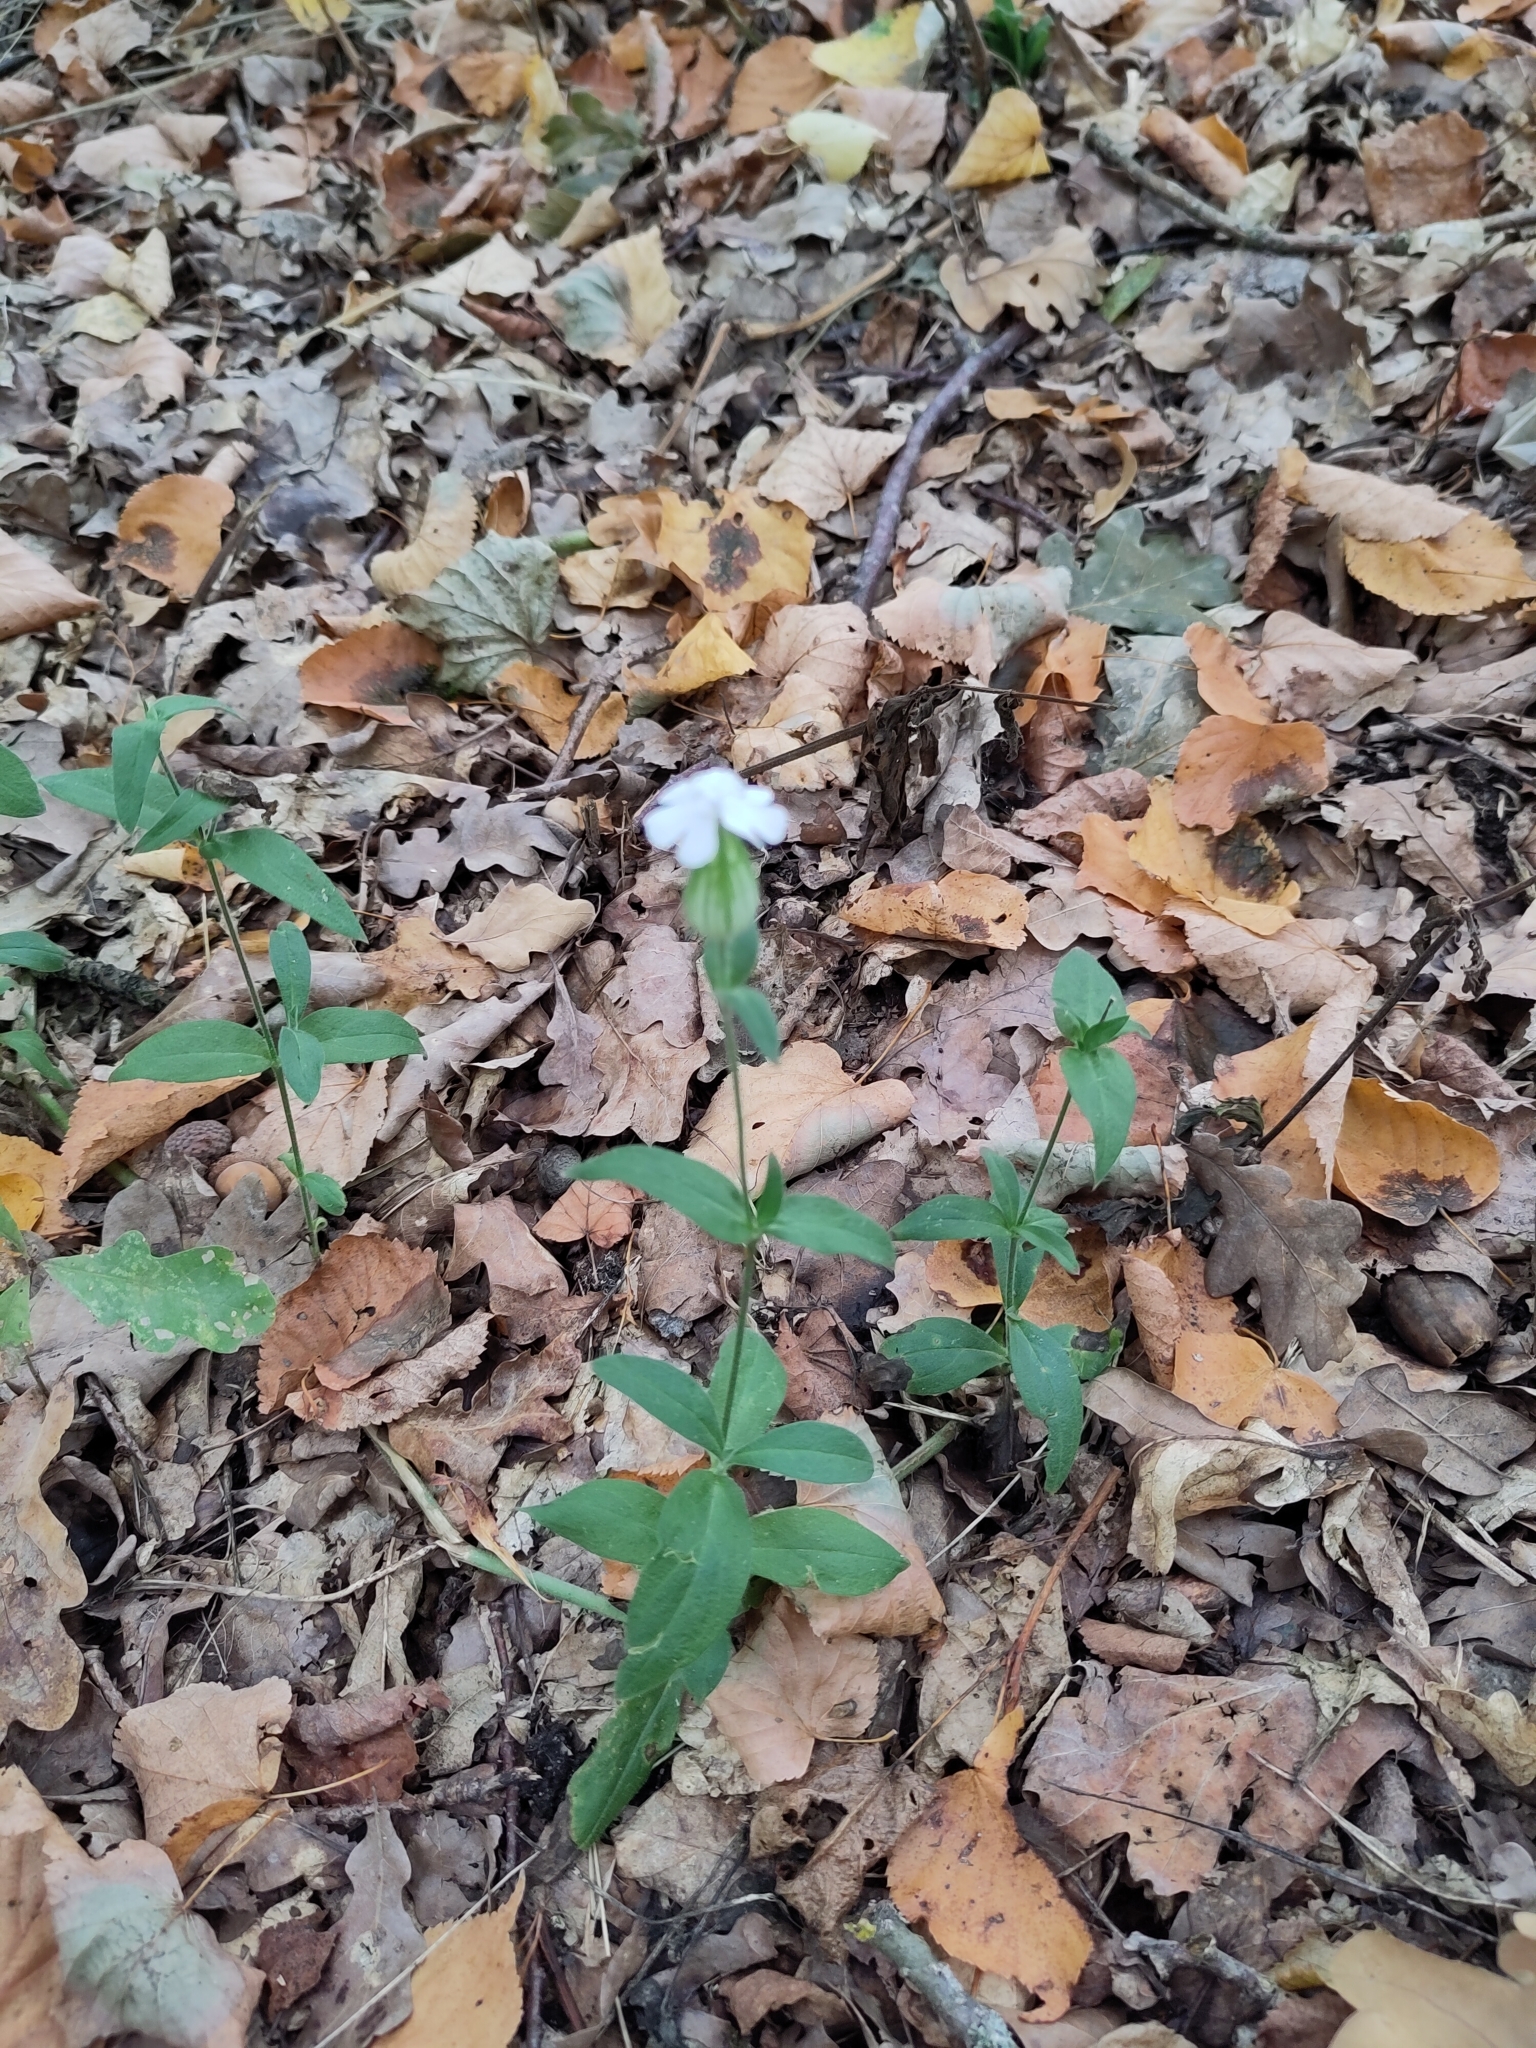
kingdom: Plantae
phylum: Tracheophyta
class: Magnoliopsida
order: Caryophyllales
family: Caryophyllaceae
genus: Silene
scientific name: Silene latifolia
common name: White campion
